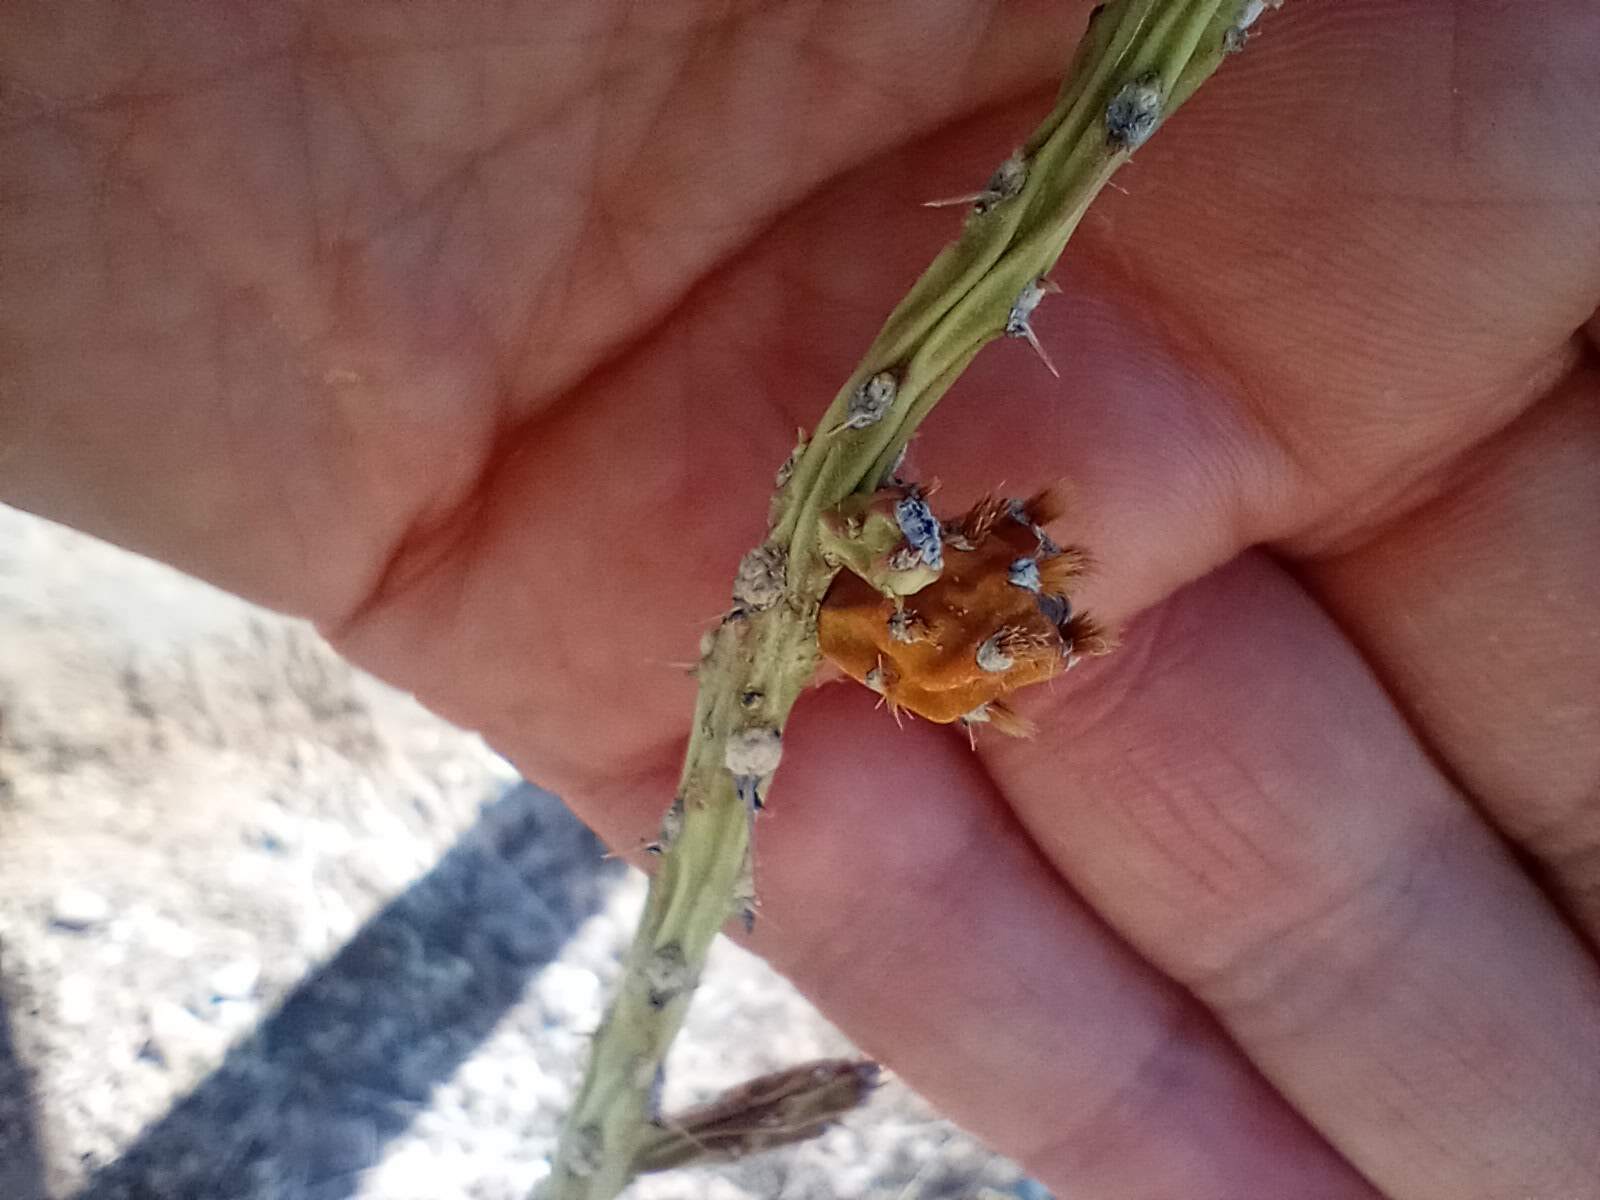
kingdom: Plantae
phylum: Tracheophyta
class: Magnoliopsida
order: Caryophyllales
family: Cactaceae
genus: Cylindropuntia
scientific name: Cylindropuntia leptocaulis
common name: Christmas cactus
